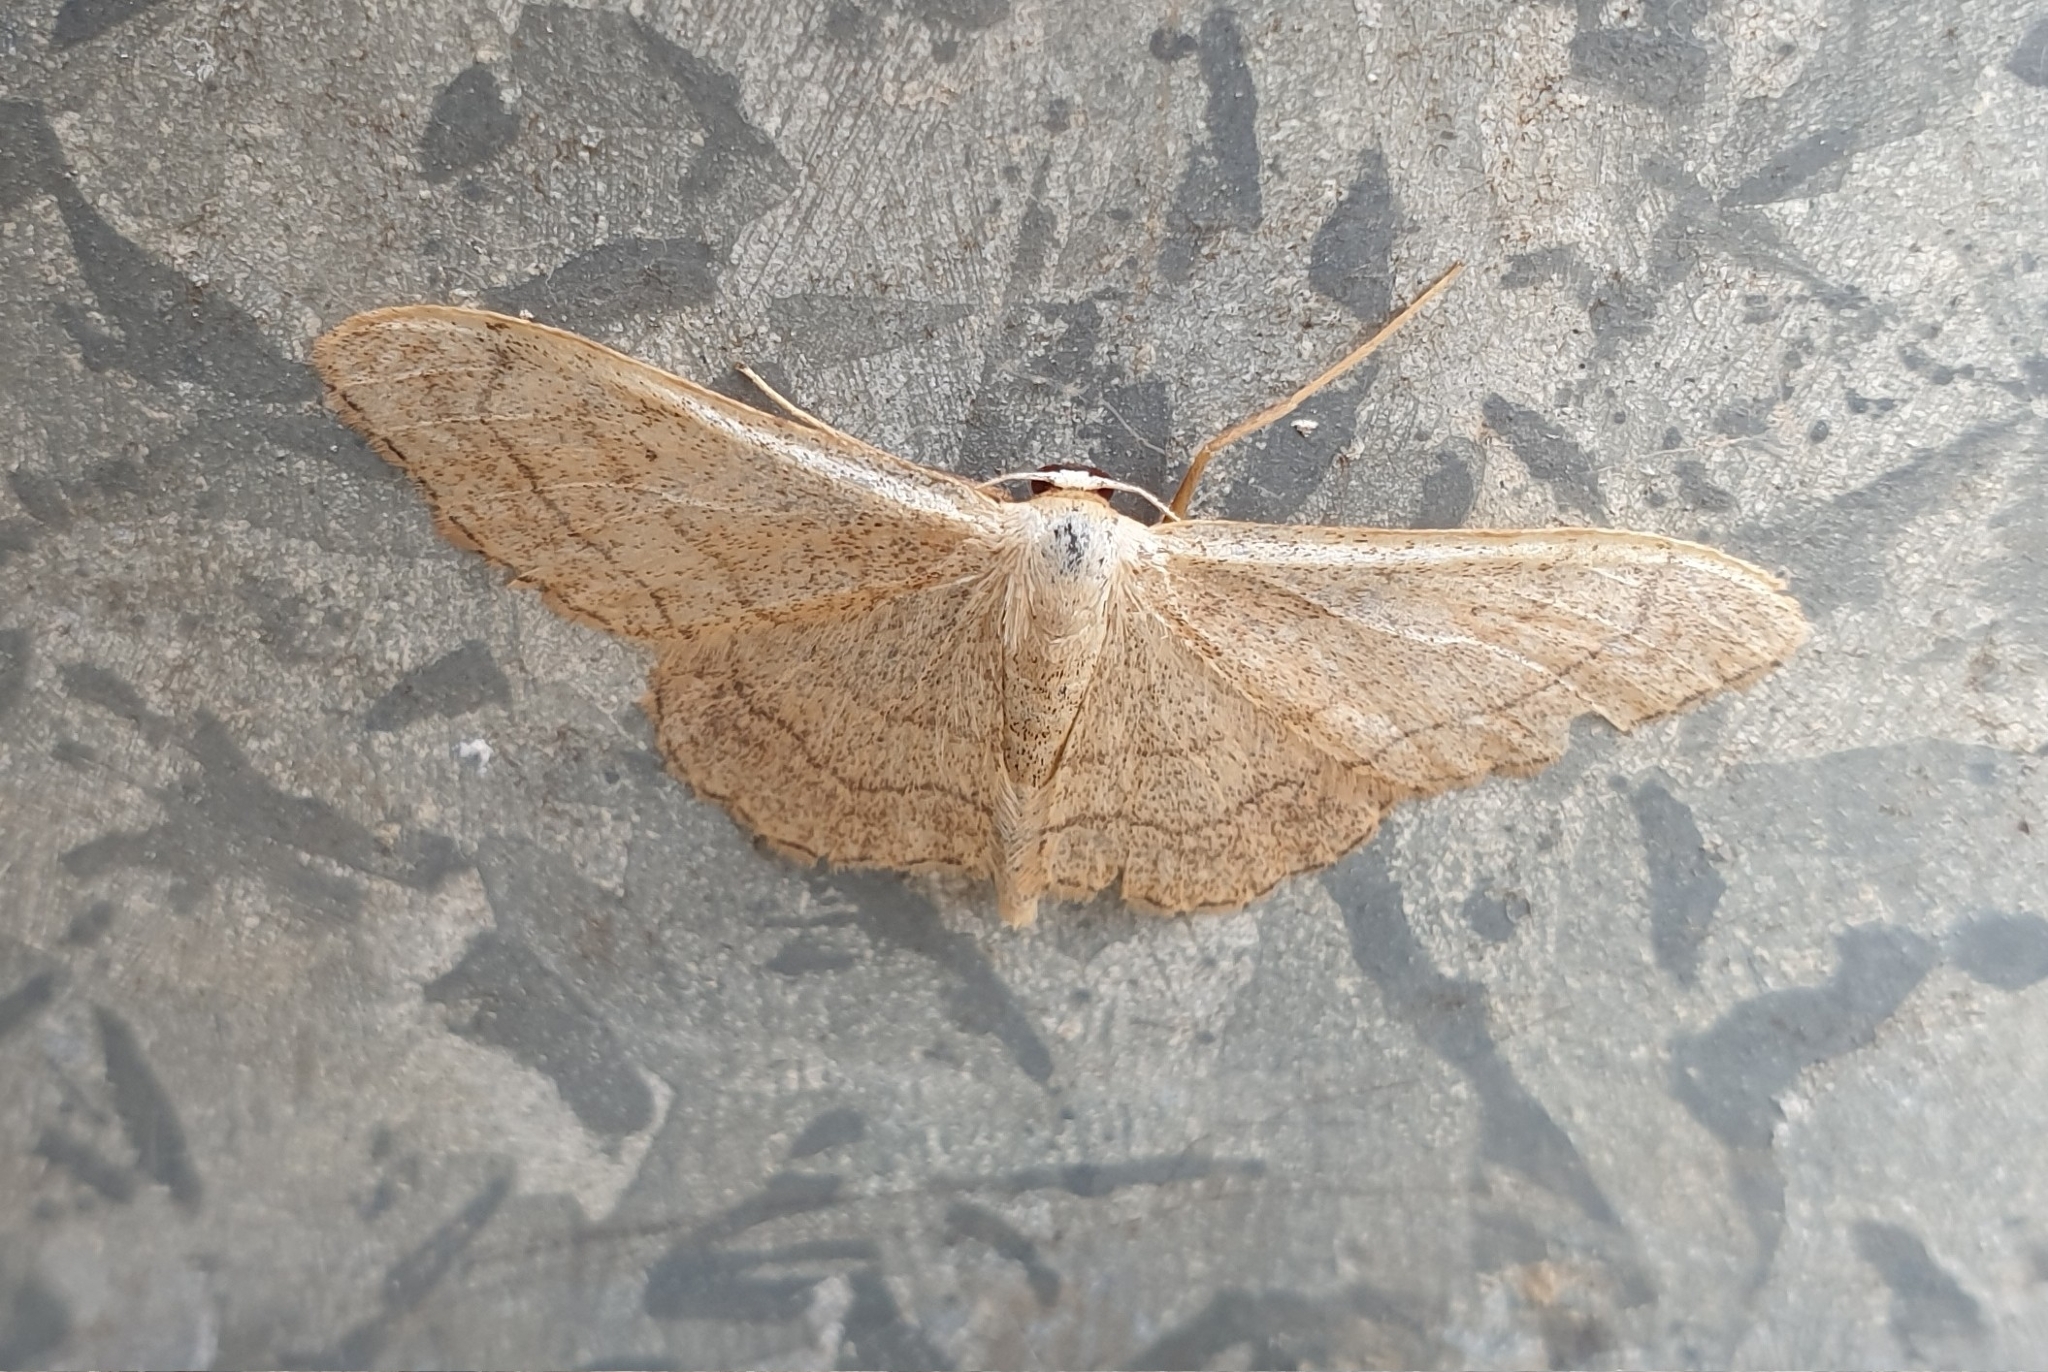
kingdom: Animalia
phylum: Arthropoda
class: Insecta
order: Lepidoptera
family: Geometridae
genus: Idaea
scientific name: Idaea aversata
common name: Riband wave
